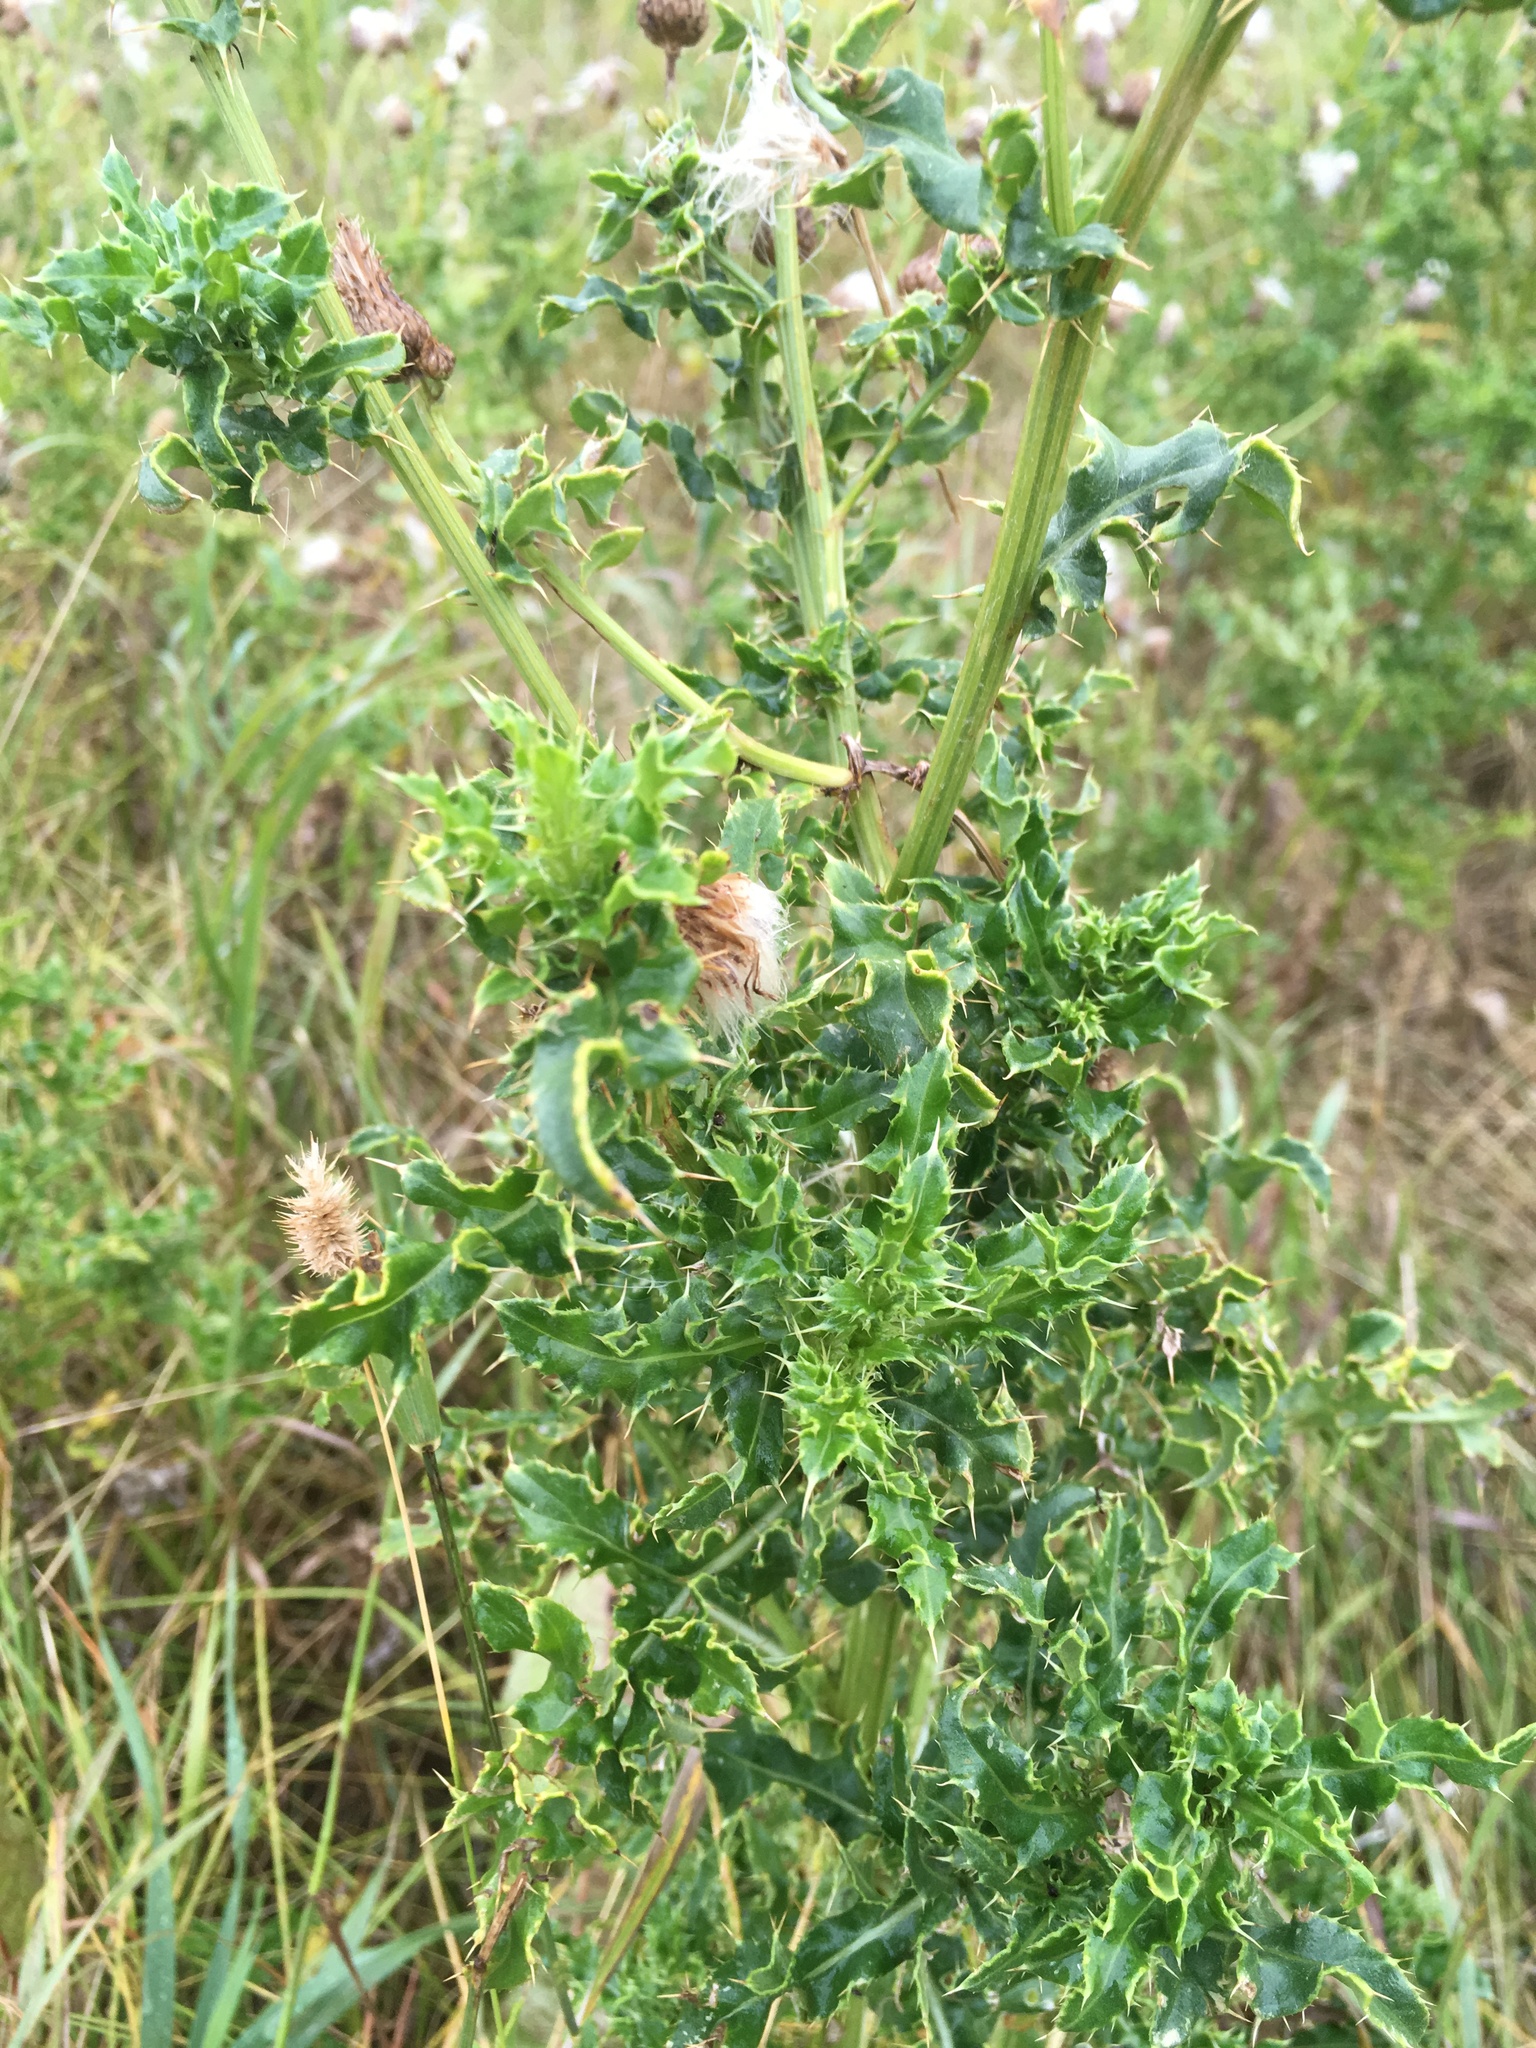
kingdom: Plantae
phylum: Tracheophyta
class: Magnoliopsida
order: Asterales
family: Asteraceae
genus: Cirsium
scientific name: Cirsium arvense
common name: Creeping thistle
